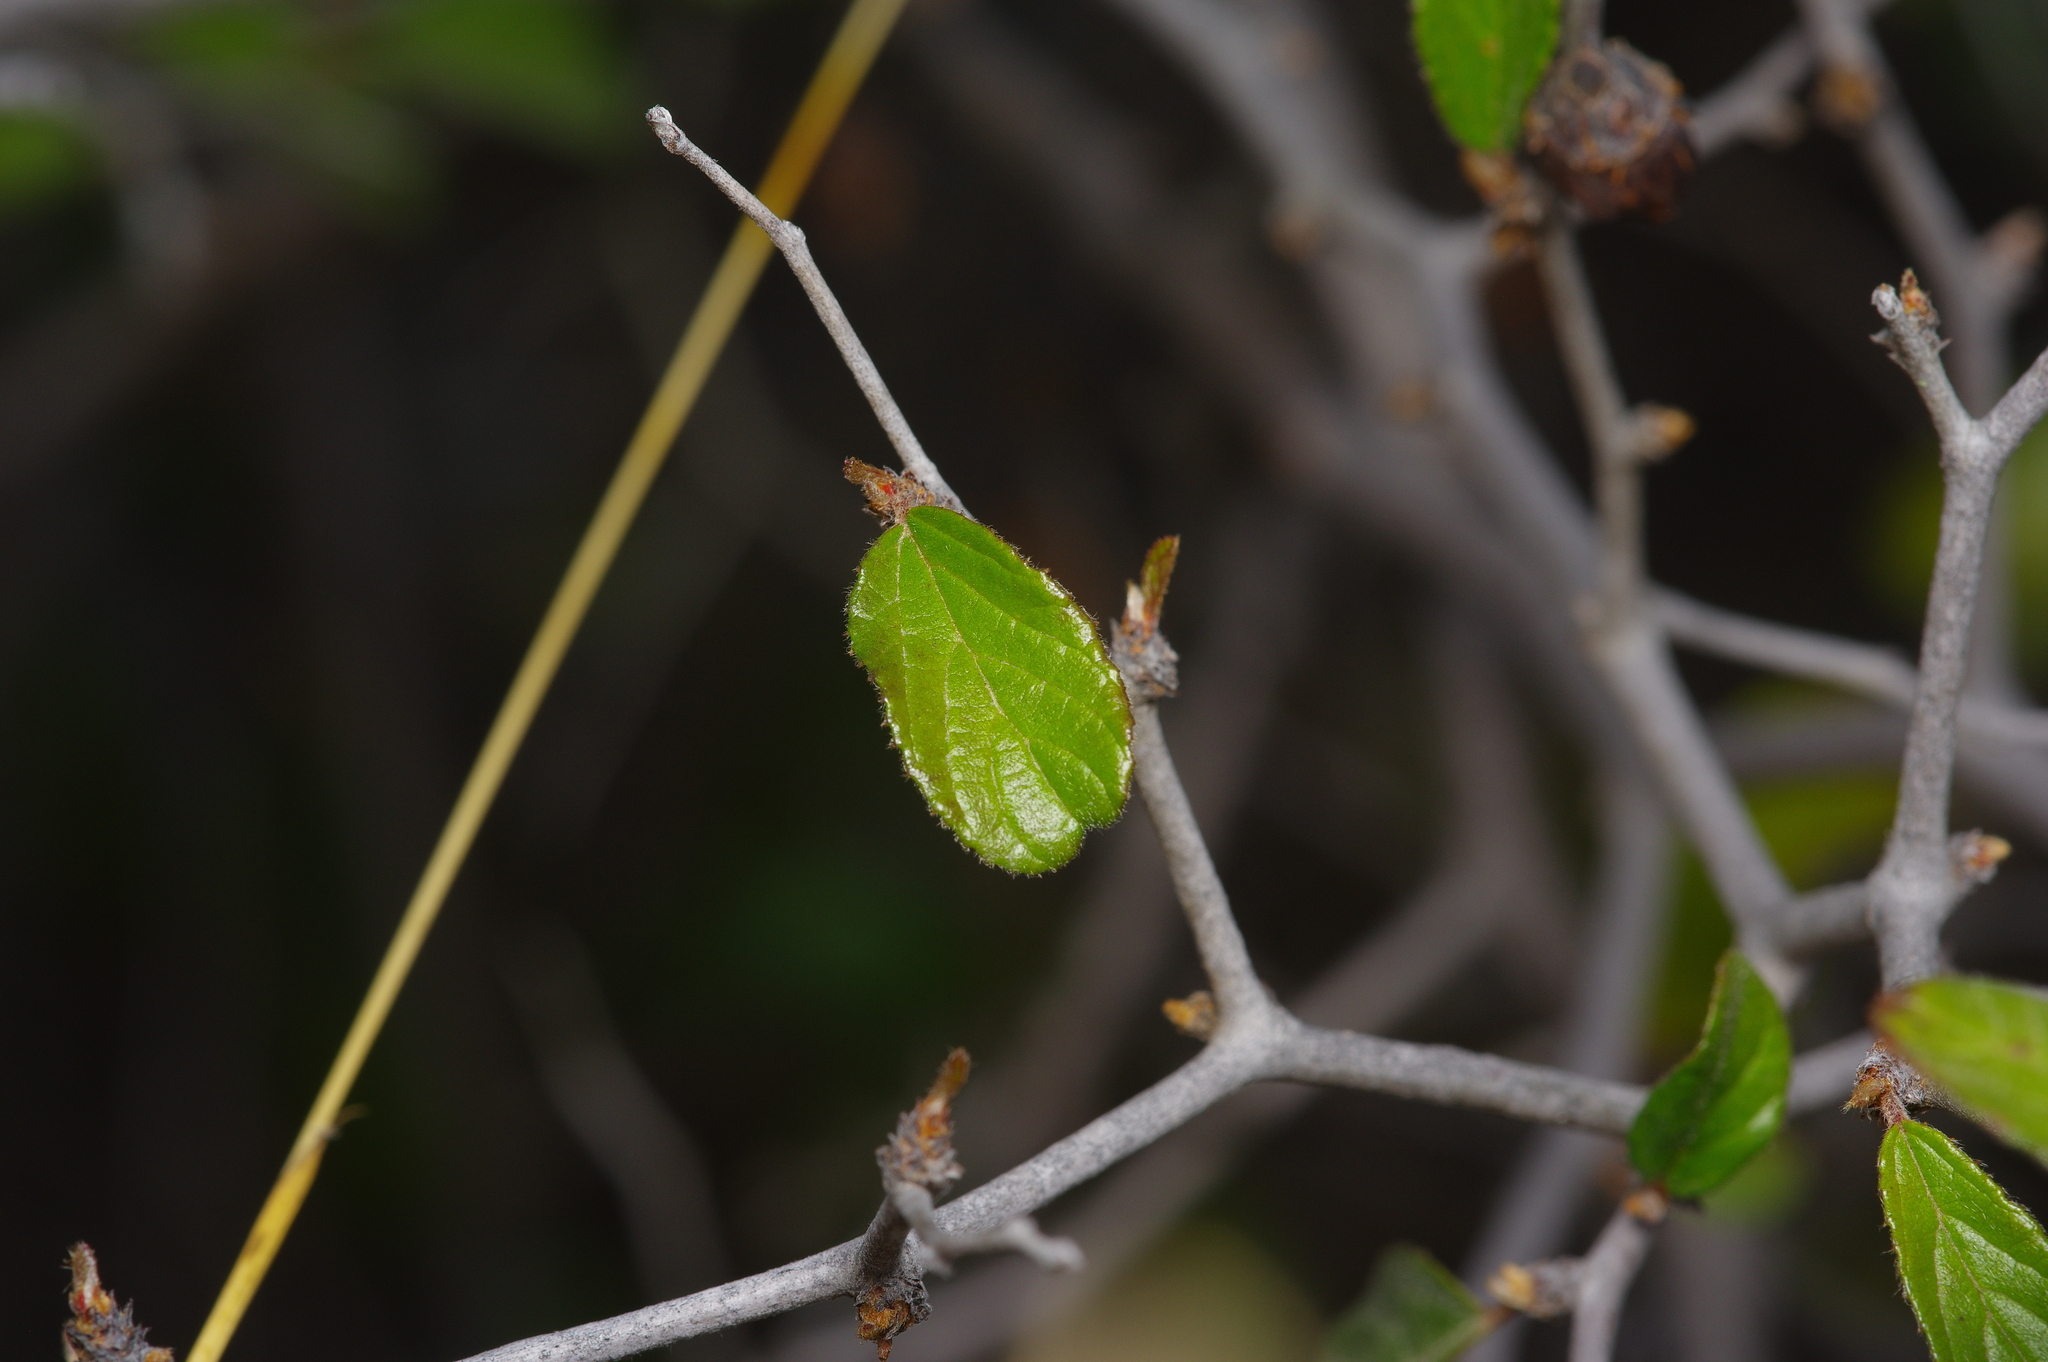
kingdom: Plantae
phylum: Tracheophyta
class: Magnoliopsida
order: Rosales
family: Rhamnaceae
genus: Colubrina
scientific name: Colubrina texensis
